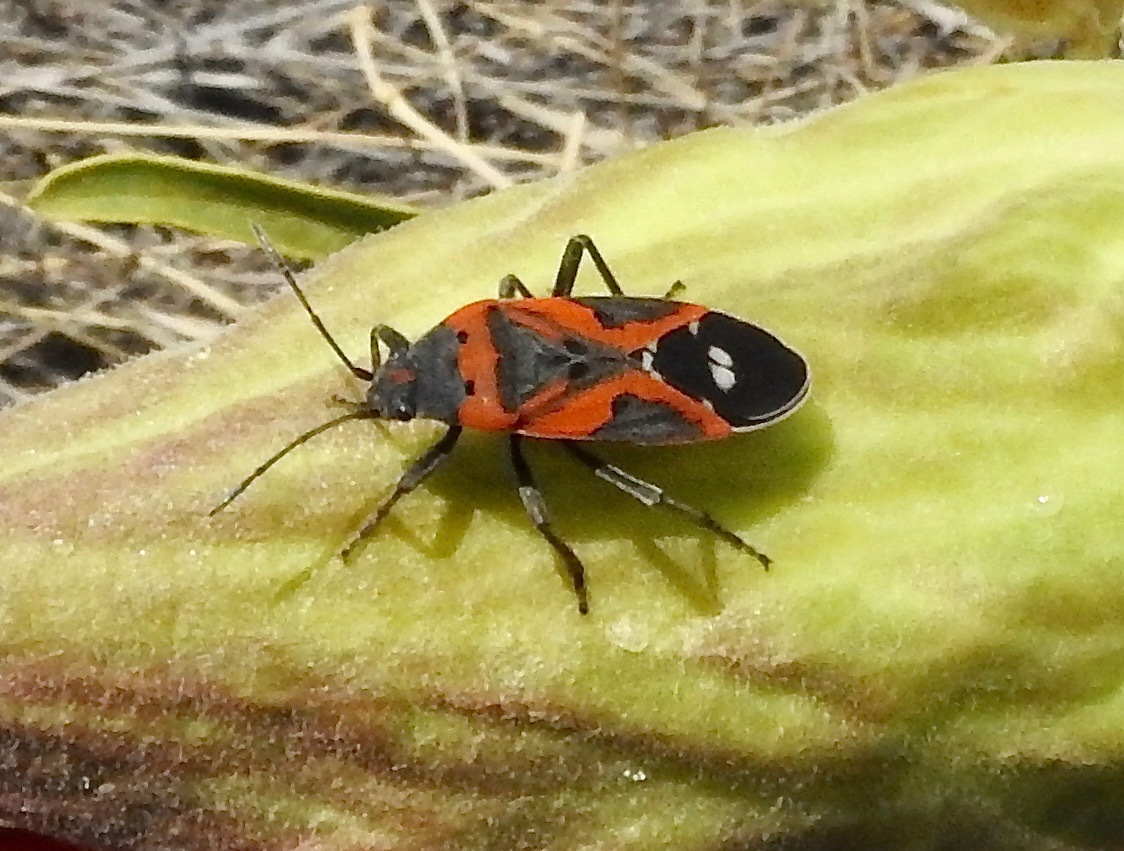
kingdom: Animalia
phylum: Arthropoda
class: Insecta
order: Hemiptera
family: Lygaeidae
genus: Lygaeus
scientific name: Lygaeus reclivatus
